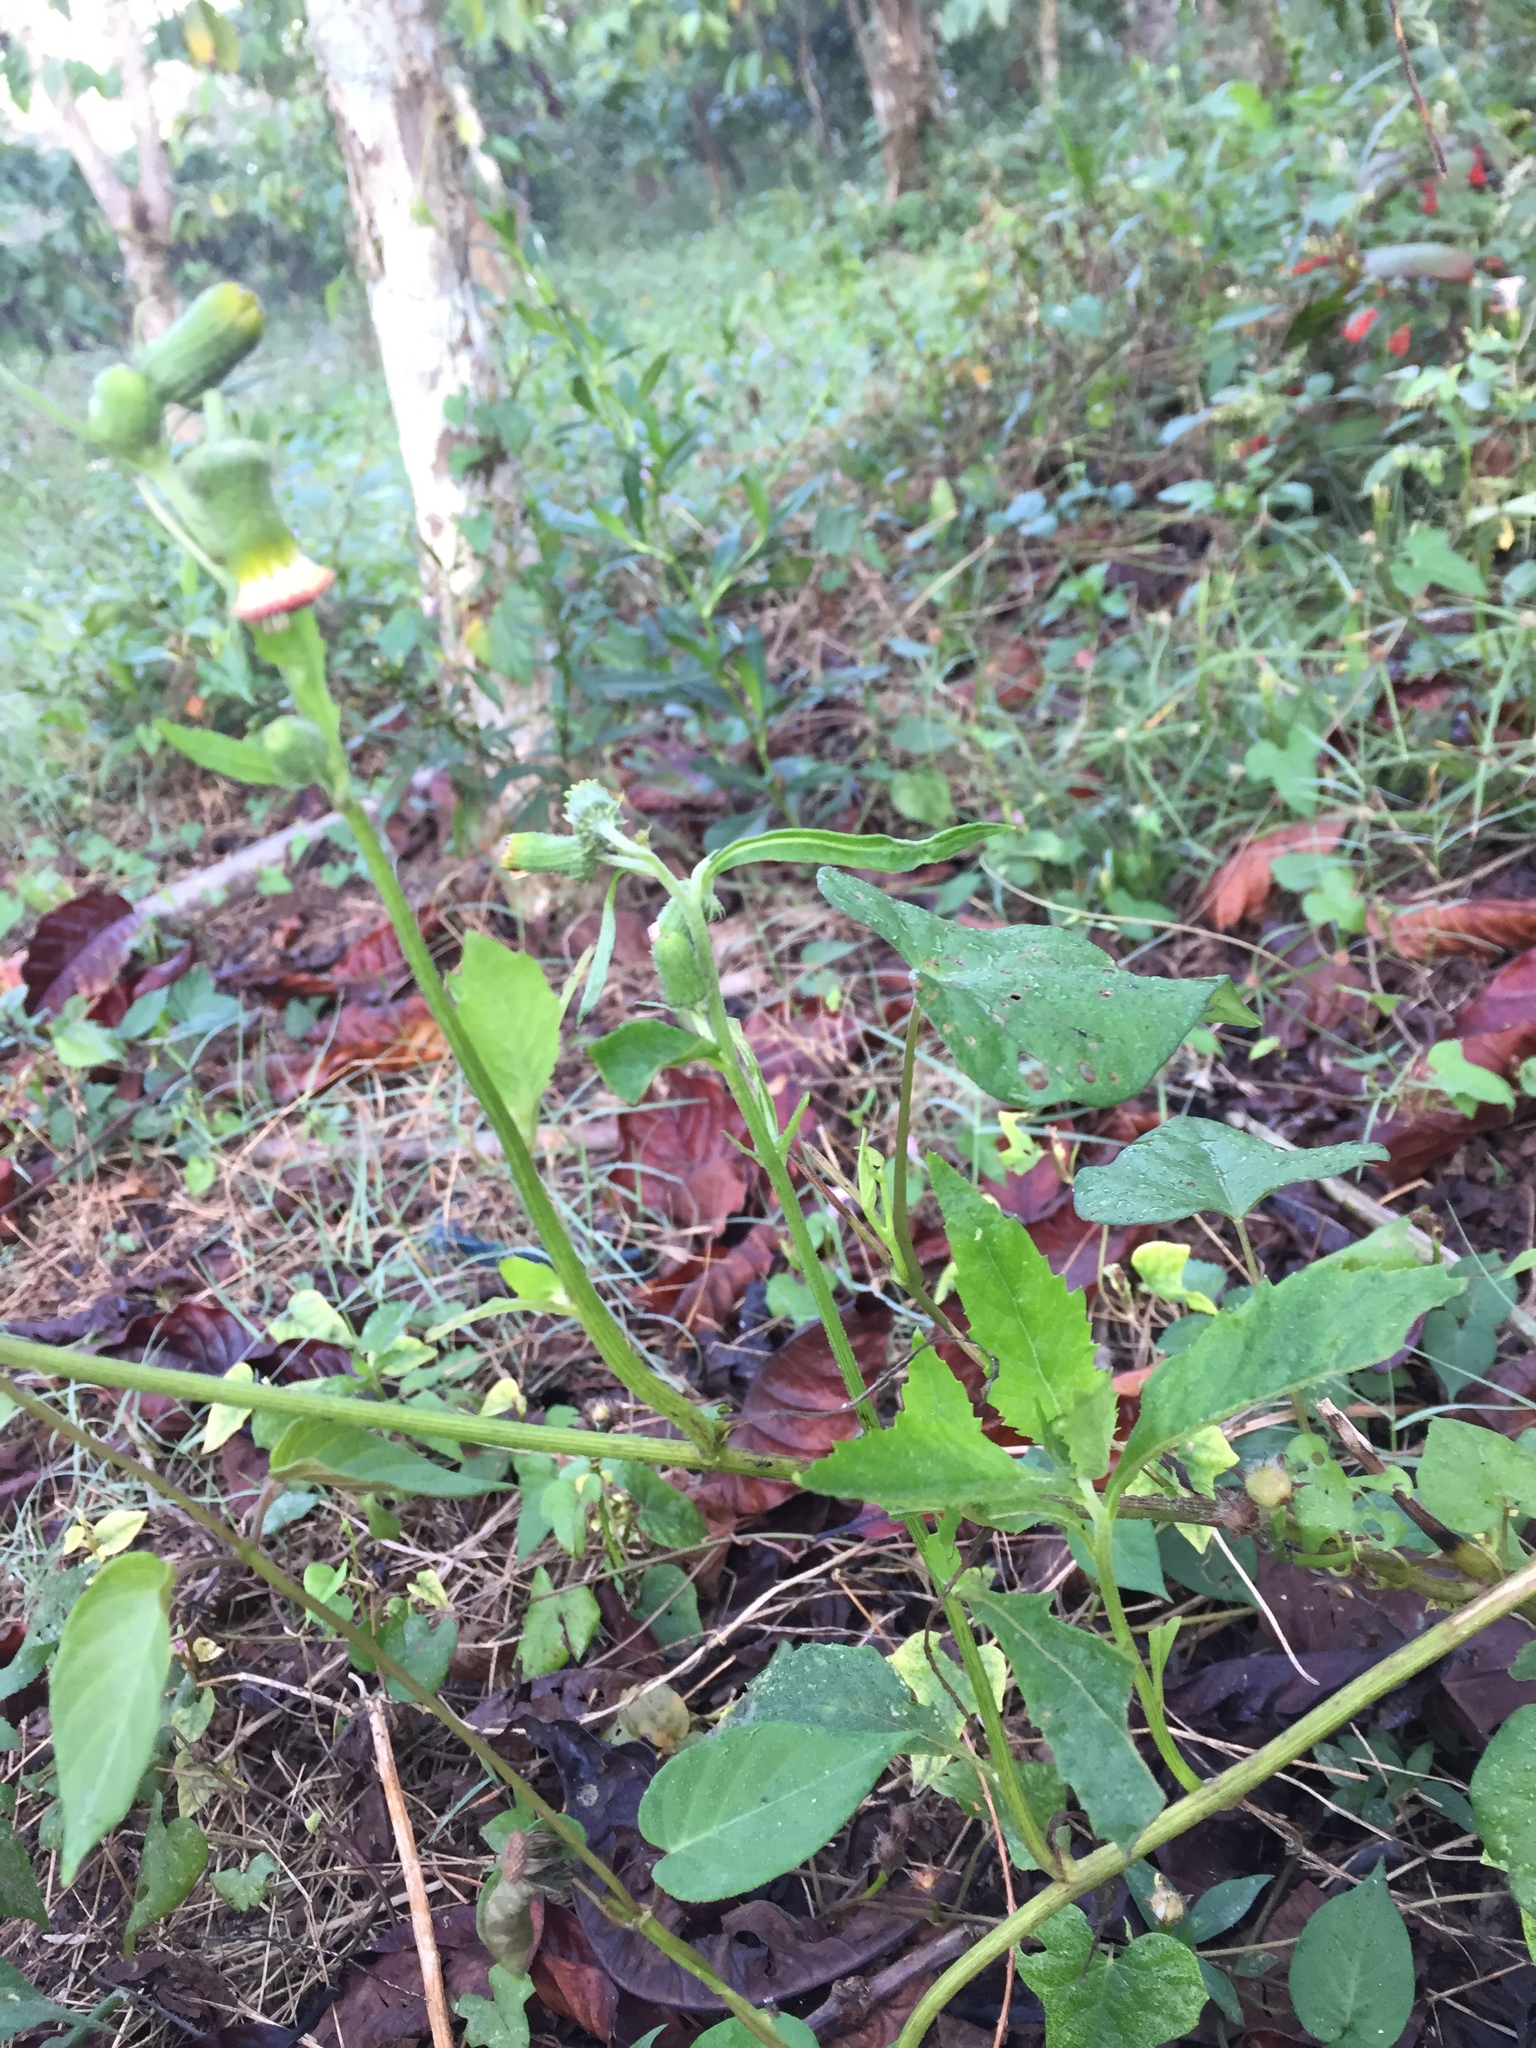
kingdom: Plantae
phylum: Tracheophyta
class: Magnoliopsida
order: Asterales
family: Asteraceae
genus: Crassocephalum
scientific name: Crassocephalum crepidioides
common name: Redflower ragleaf
